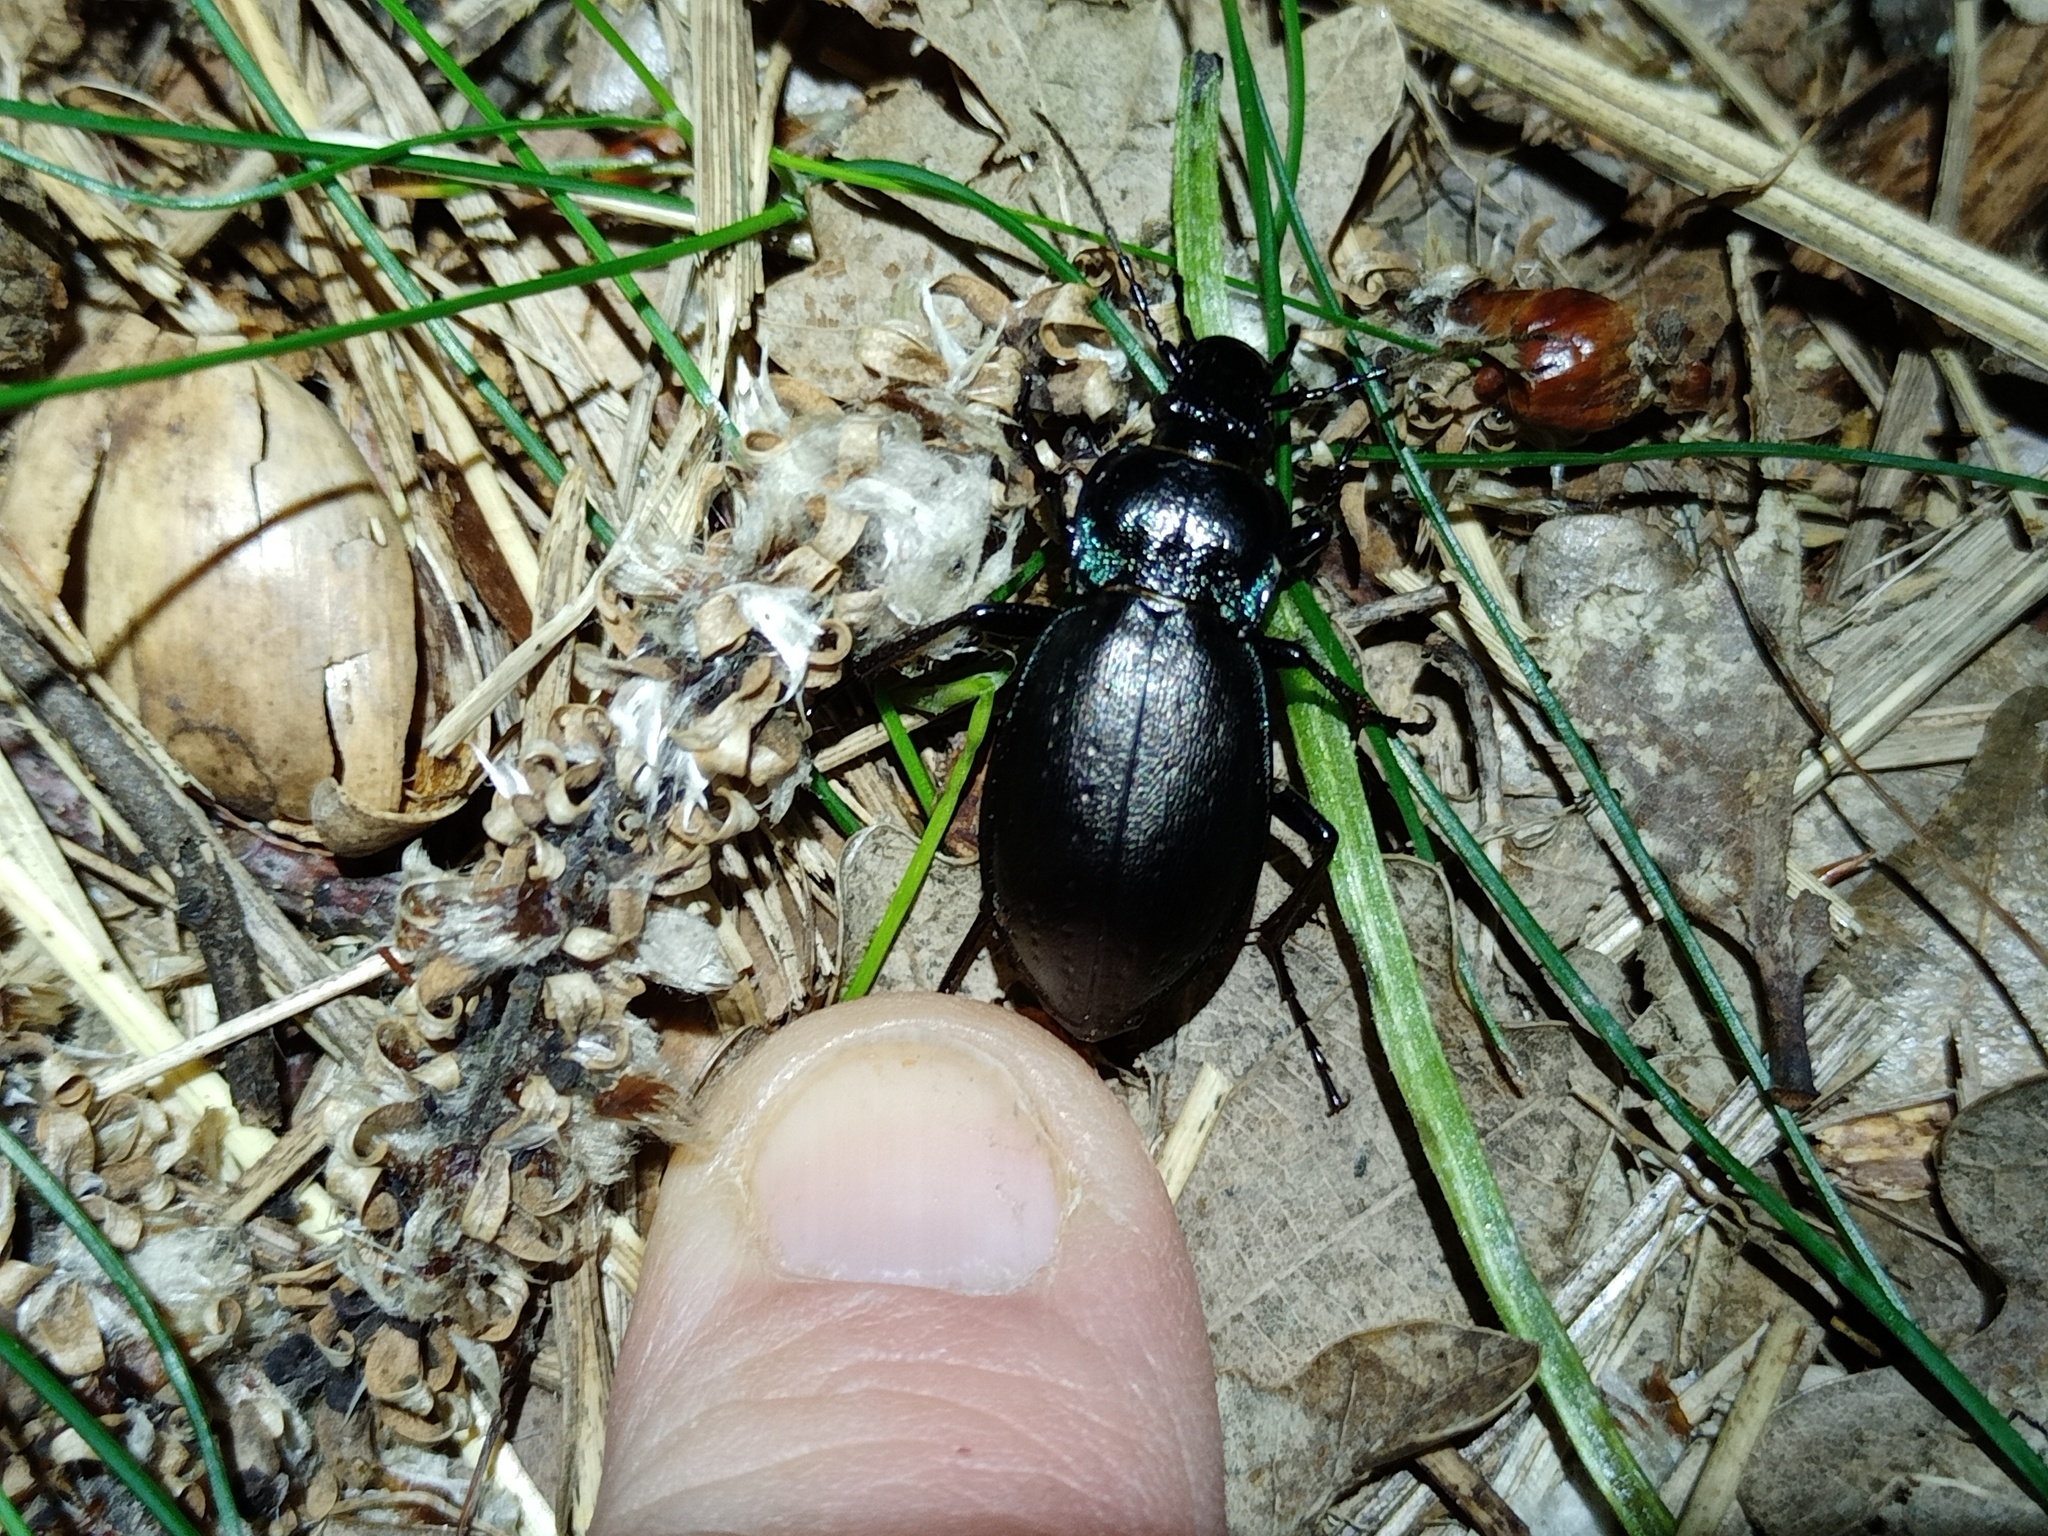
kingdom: Animalia
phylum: Arthropoda
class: Insecta
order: Coleoptera
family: Carabidae
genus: Carabus
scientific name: Carabus nemoralis
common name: European ground beetle
